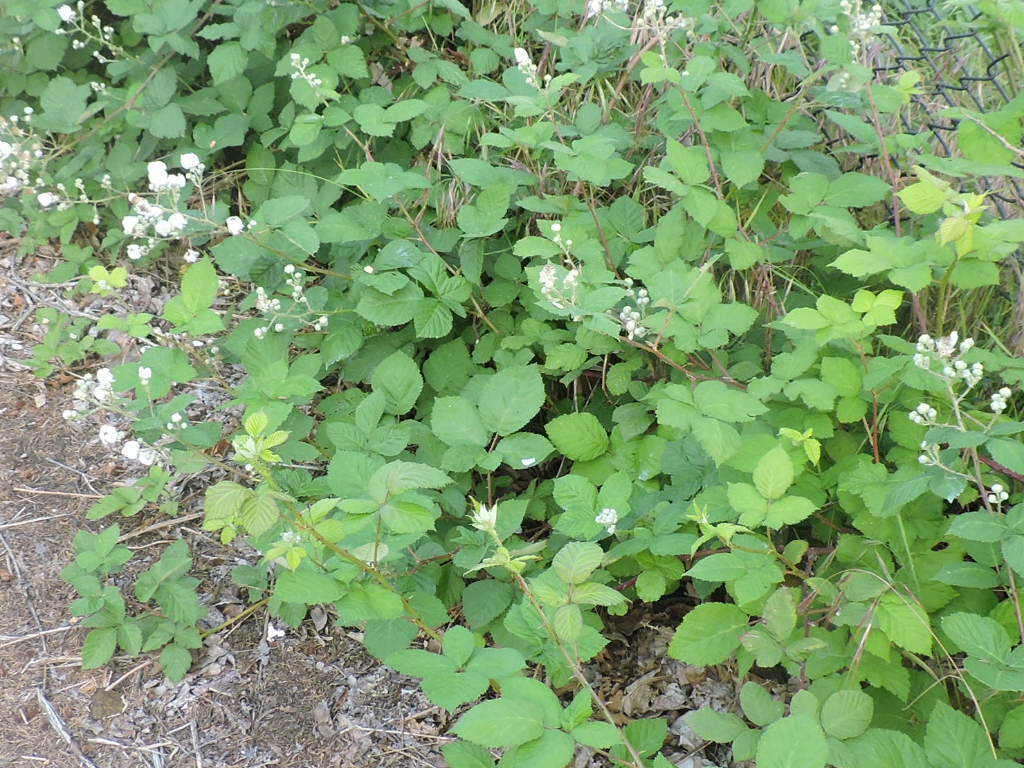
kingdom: Plantae
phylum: Tracheophyta
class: Magnoliopsida
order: Rosales
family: Rosaceae
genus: Rubus
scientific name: Rubus bifrons
